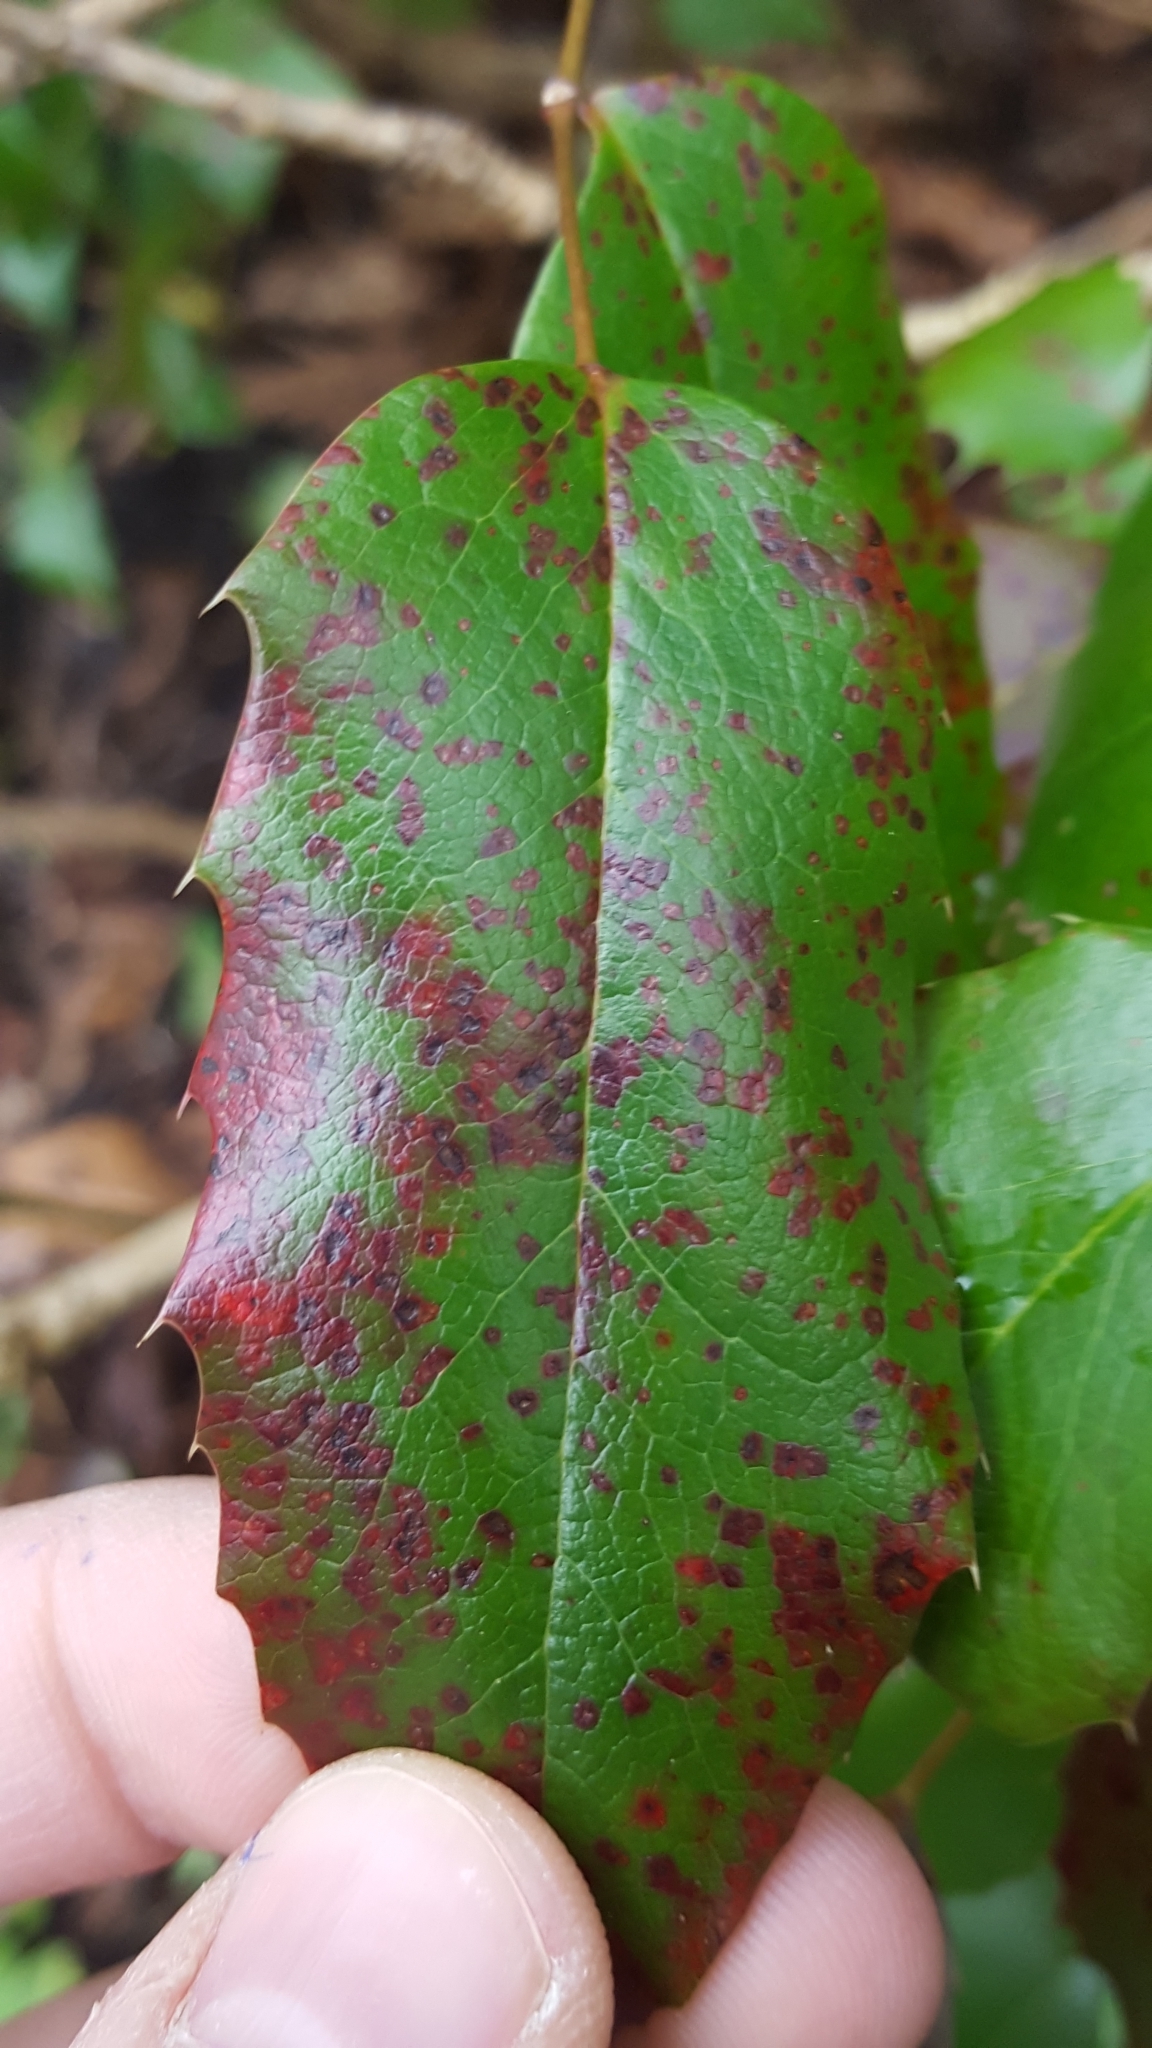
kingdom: Fungi
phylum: Basidiomycota
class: Pucciniomycetes
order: Pucciniales
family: Pucciniaceae
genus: Cumminsiella
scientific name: Cumminsiella mirabilissima
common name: Mahonia rust
